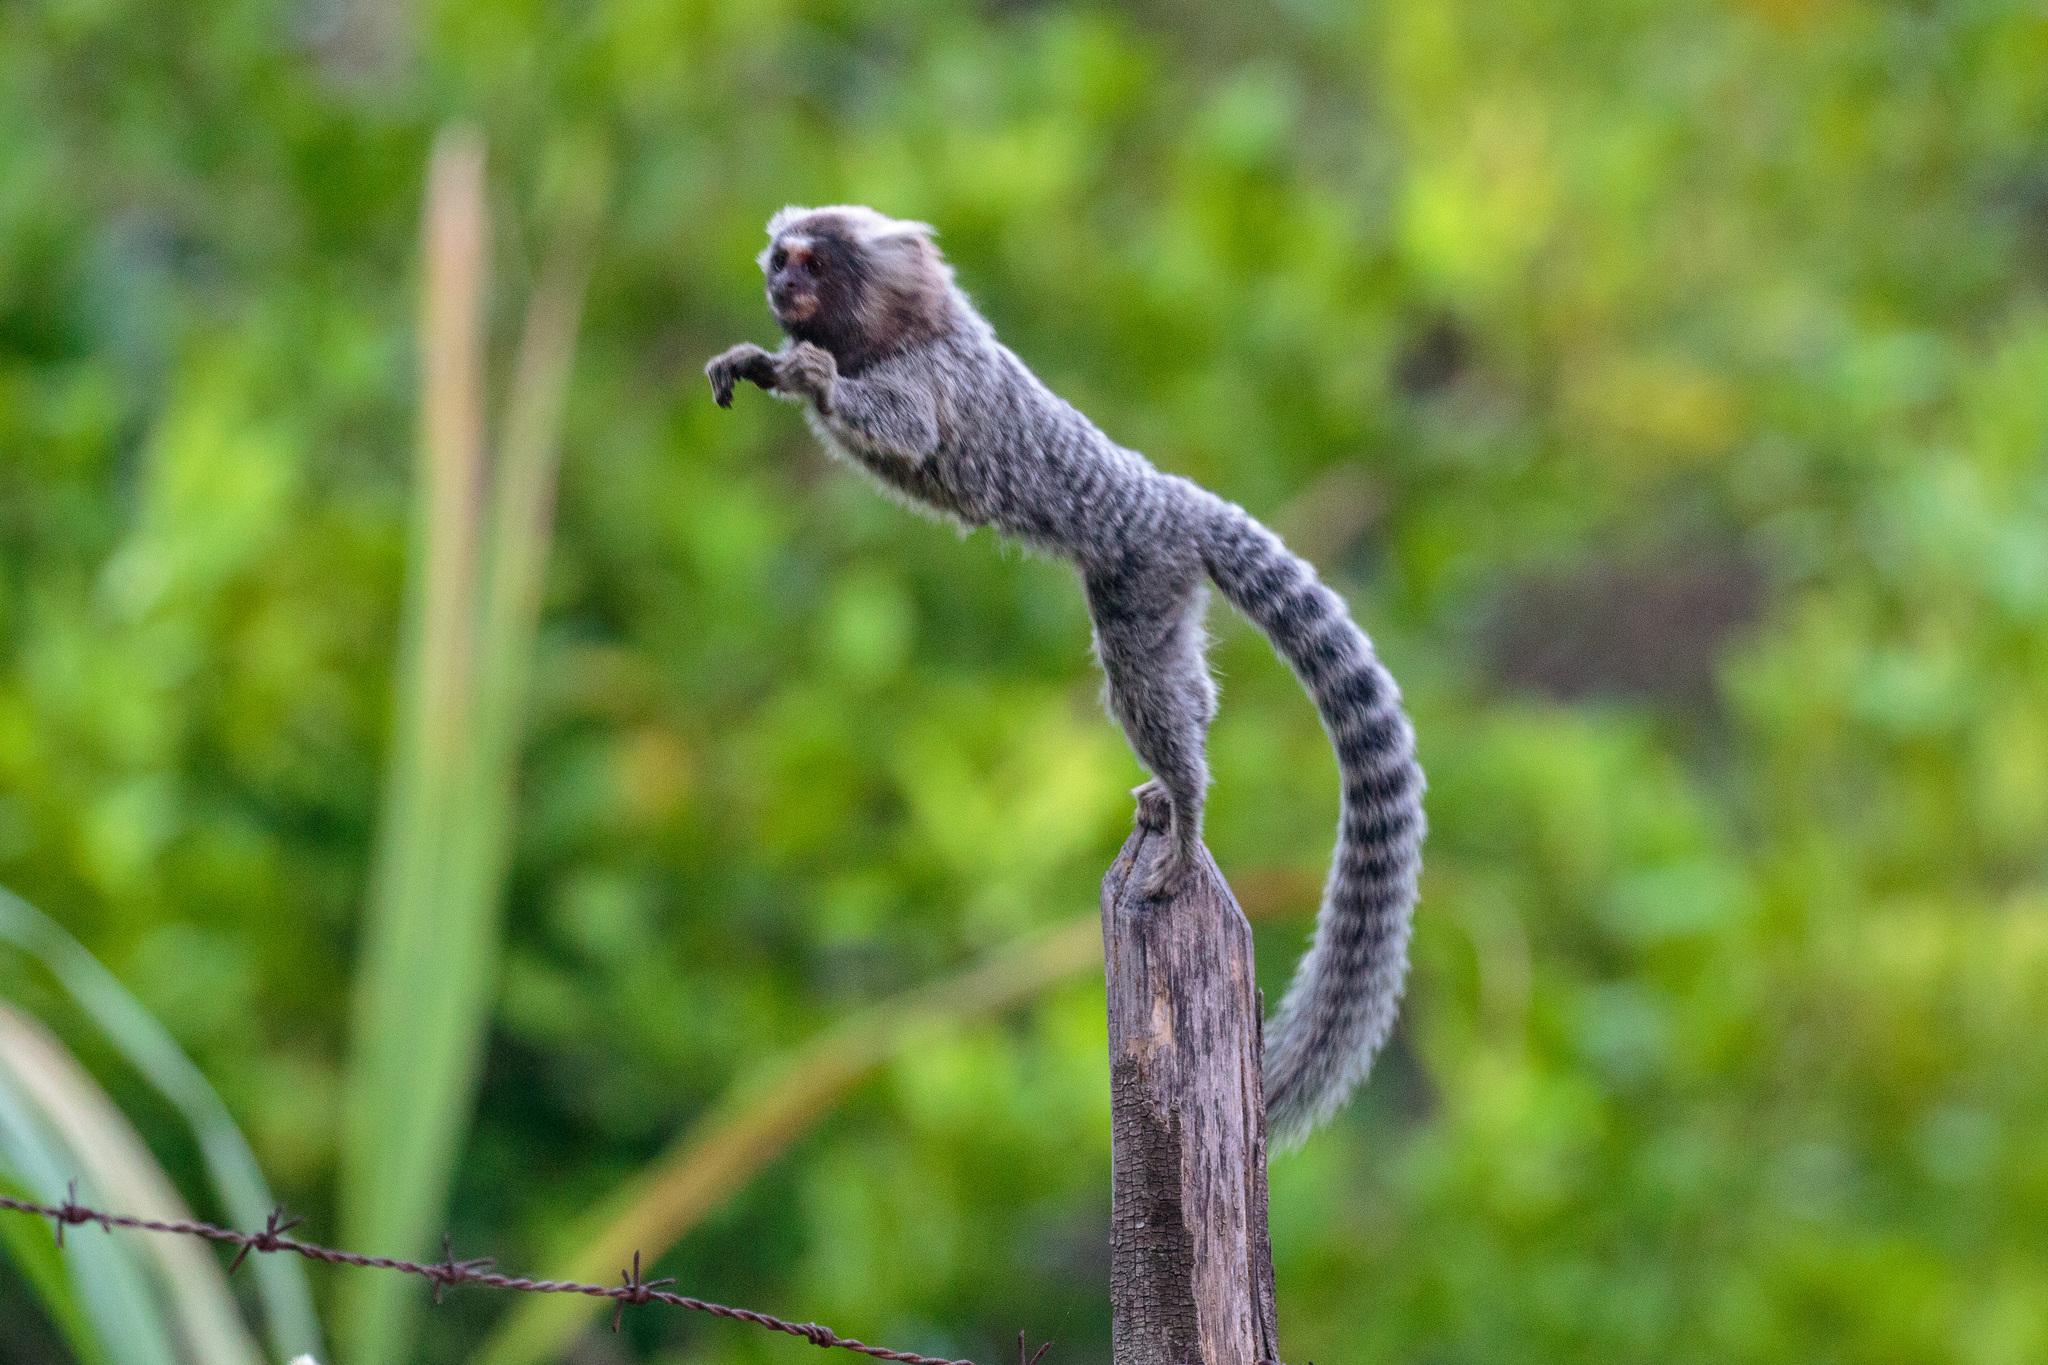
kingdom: Animalia
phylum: Chordata
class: Mammalia
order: Primates
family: Callitrichidae
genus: Callithrix
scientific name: Callithrix jacchus
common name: Common marmoset
